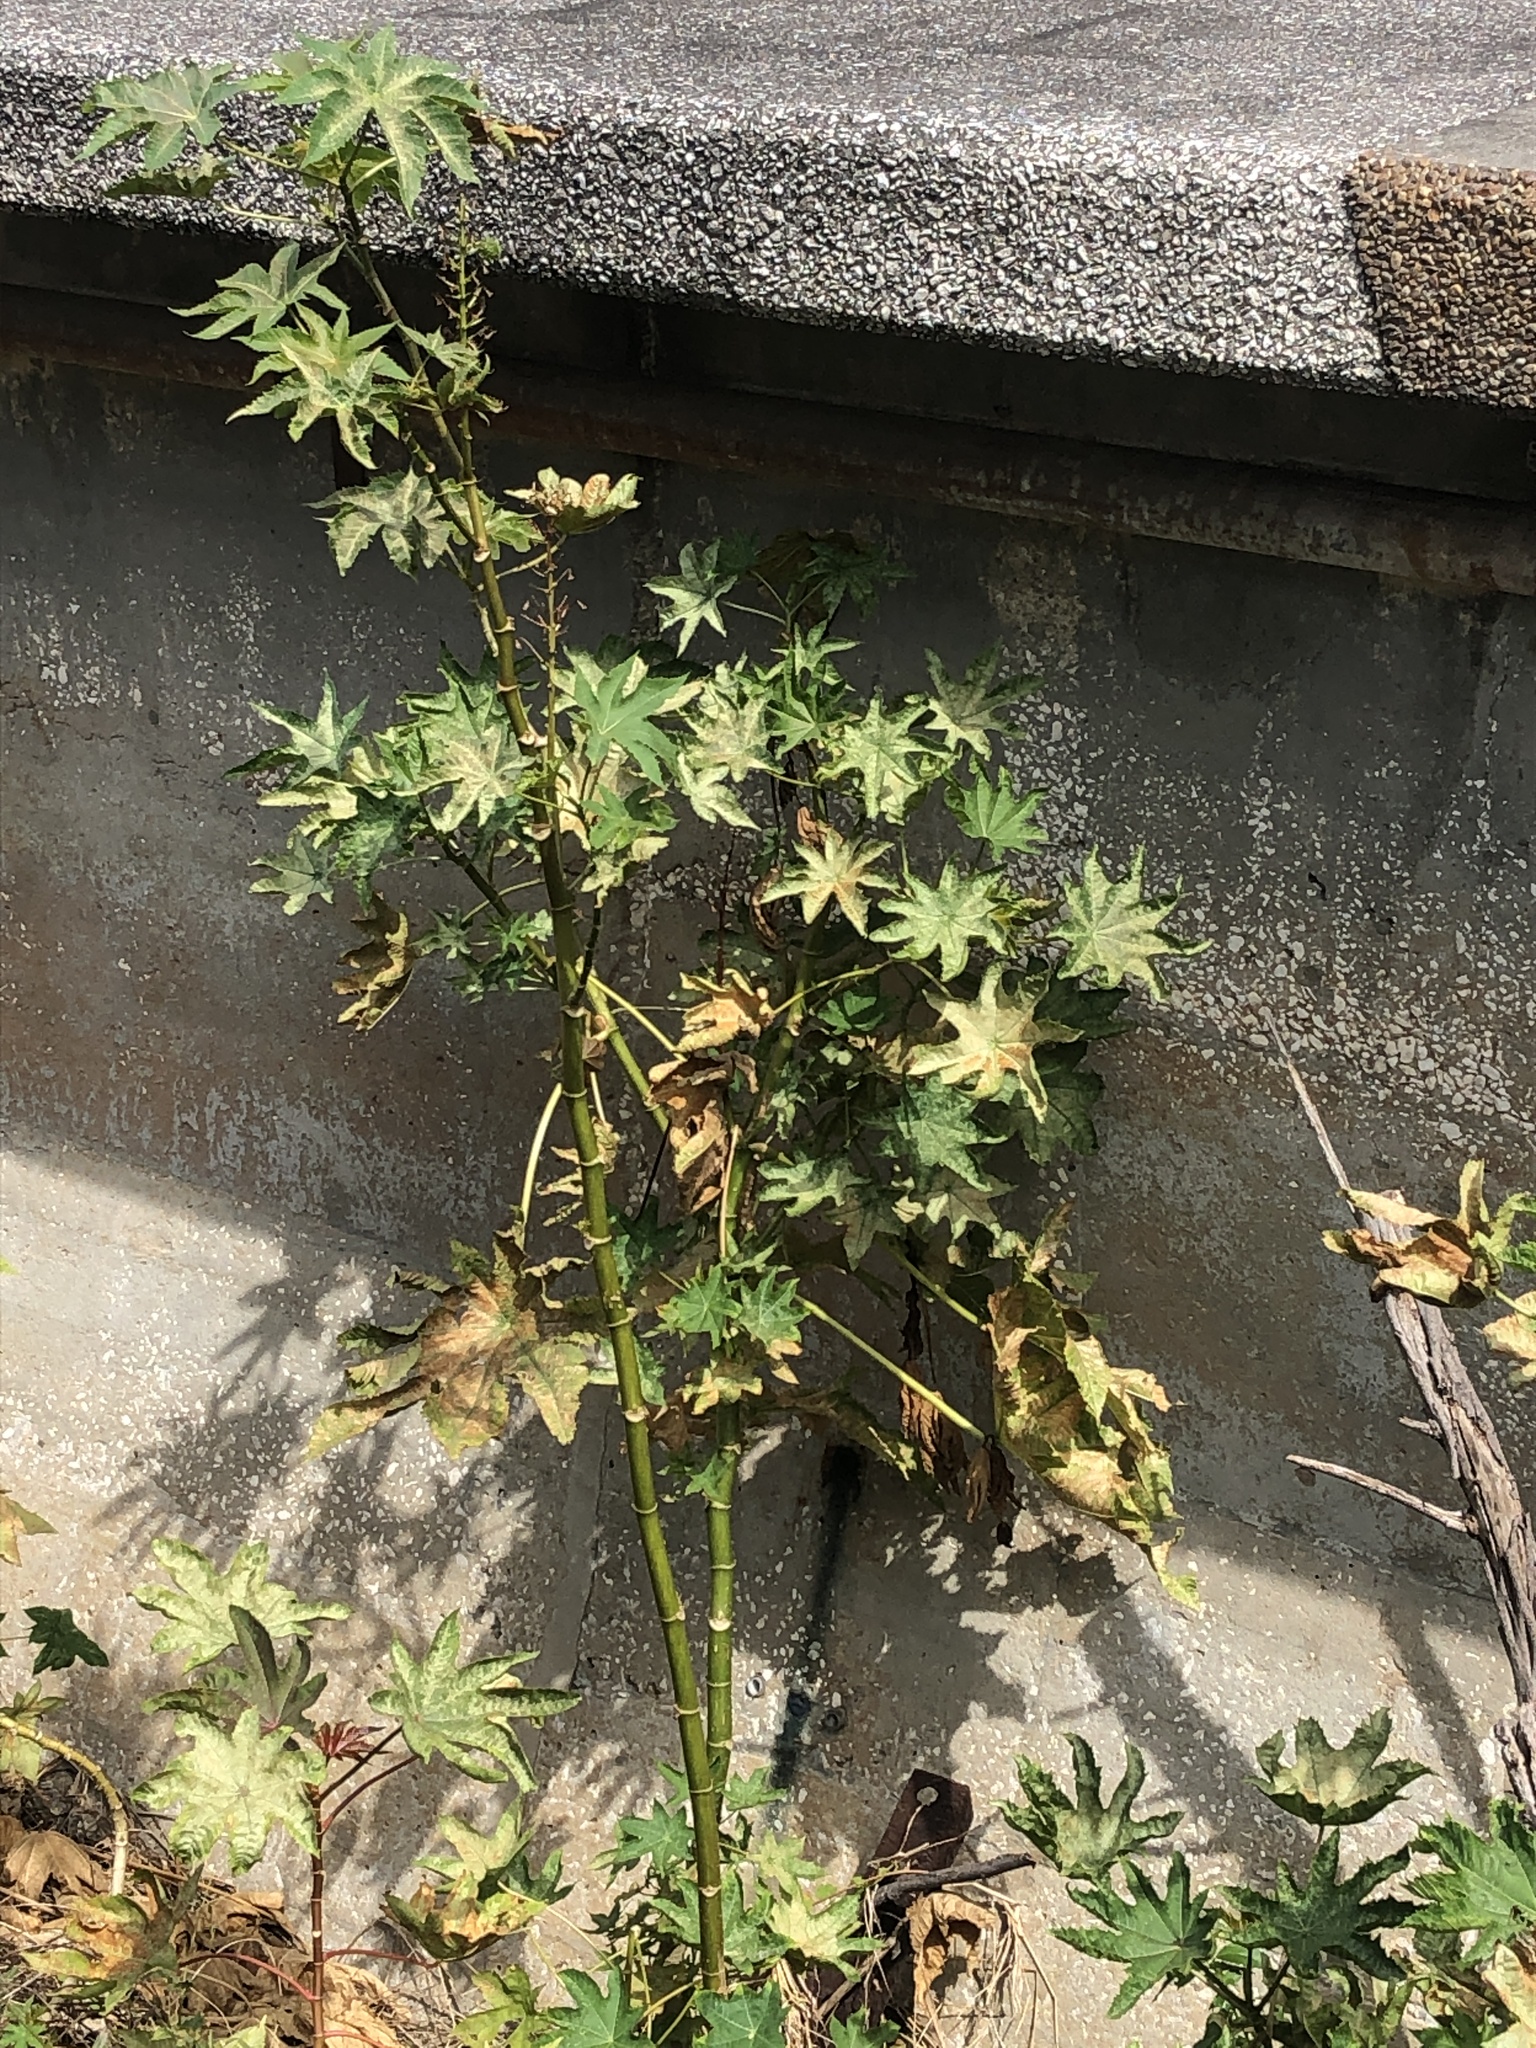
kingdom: Plantae
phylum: Tracheophyta
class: Magnoliopsida
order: Malpighiales
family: Euphorbiaceae
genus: Ricinus
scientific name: Ricinus communis
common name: Castor-oil-plant
